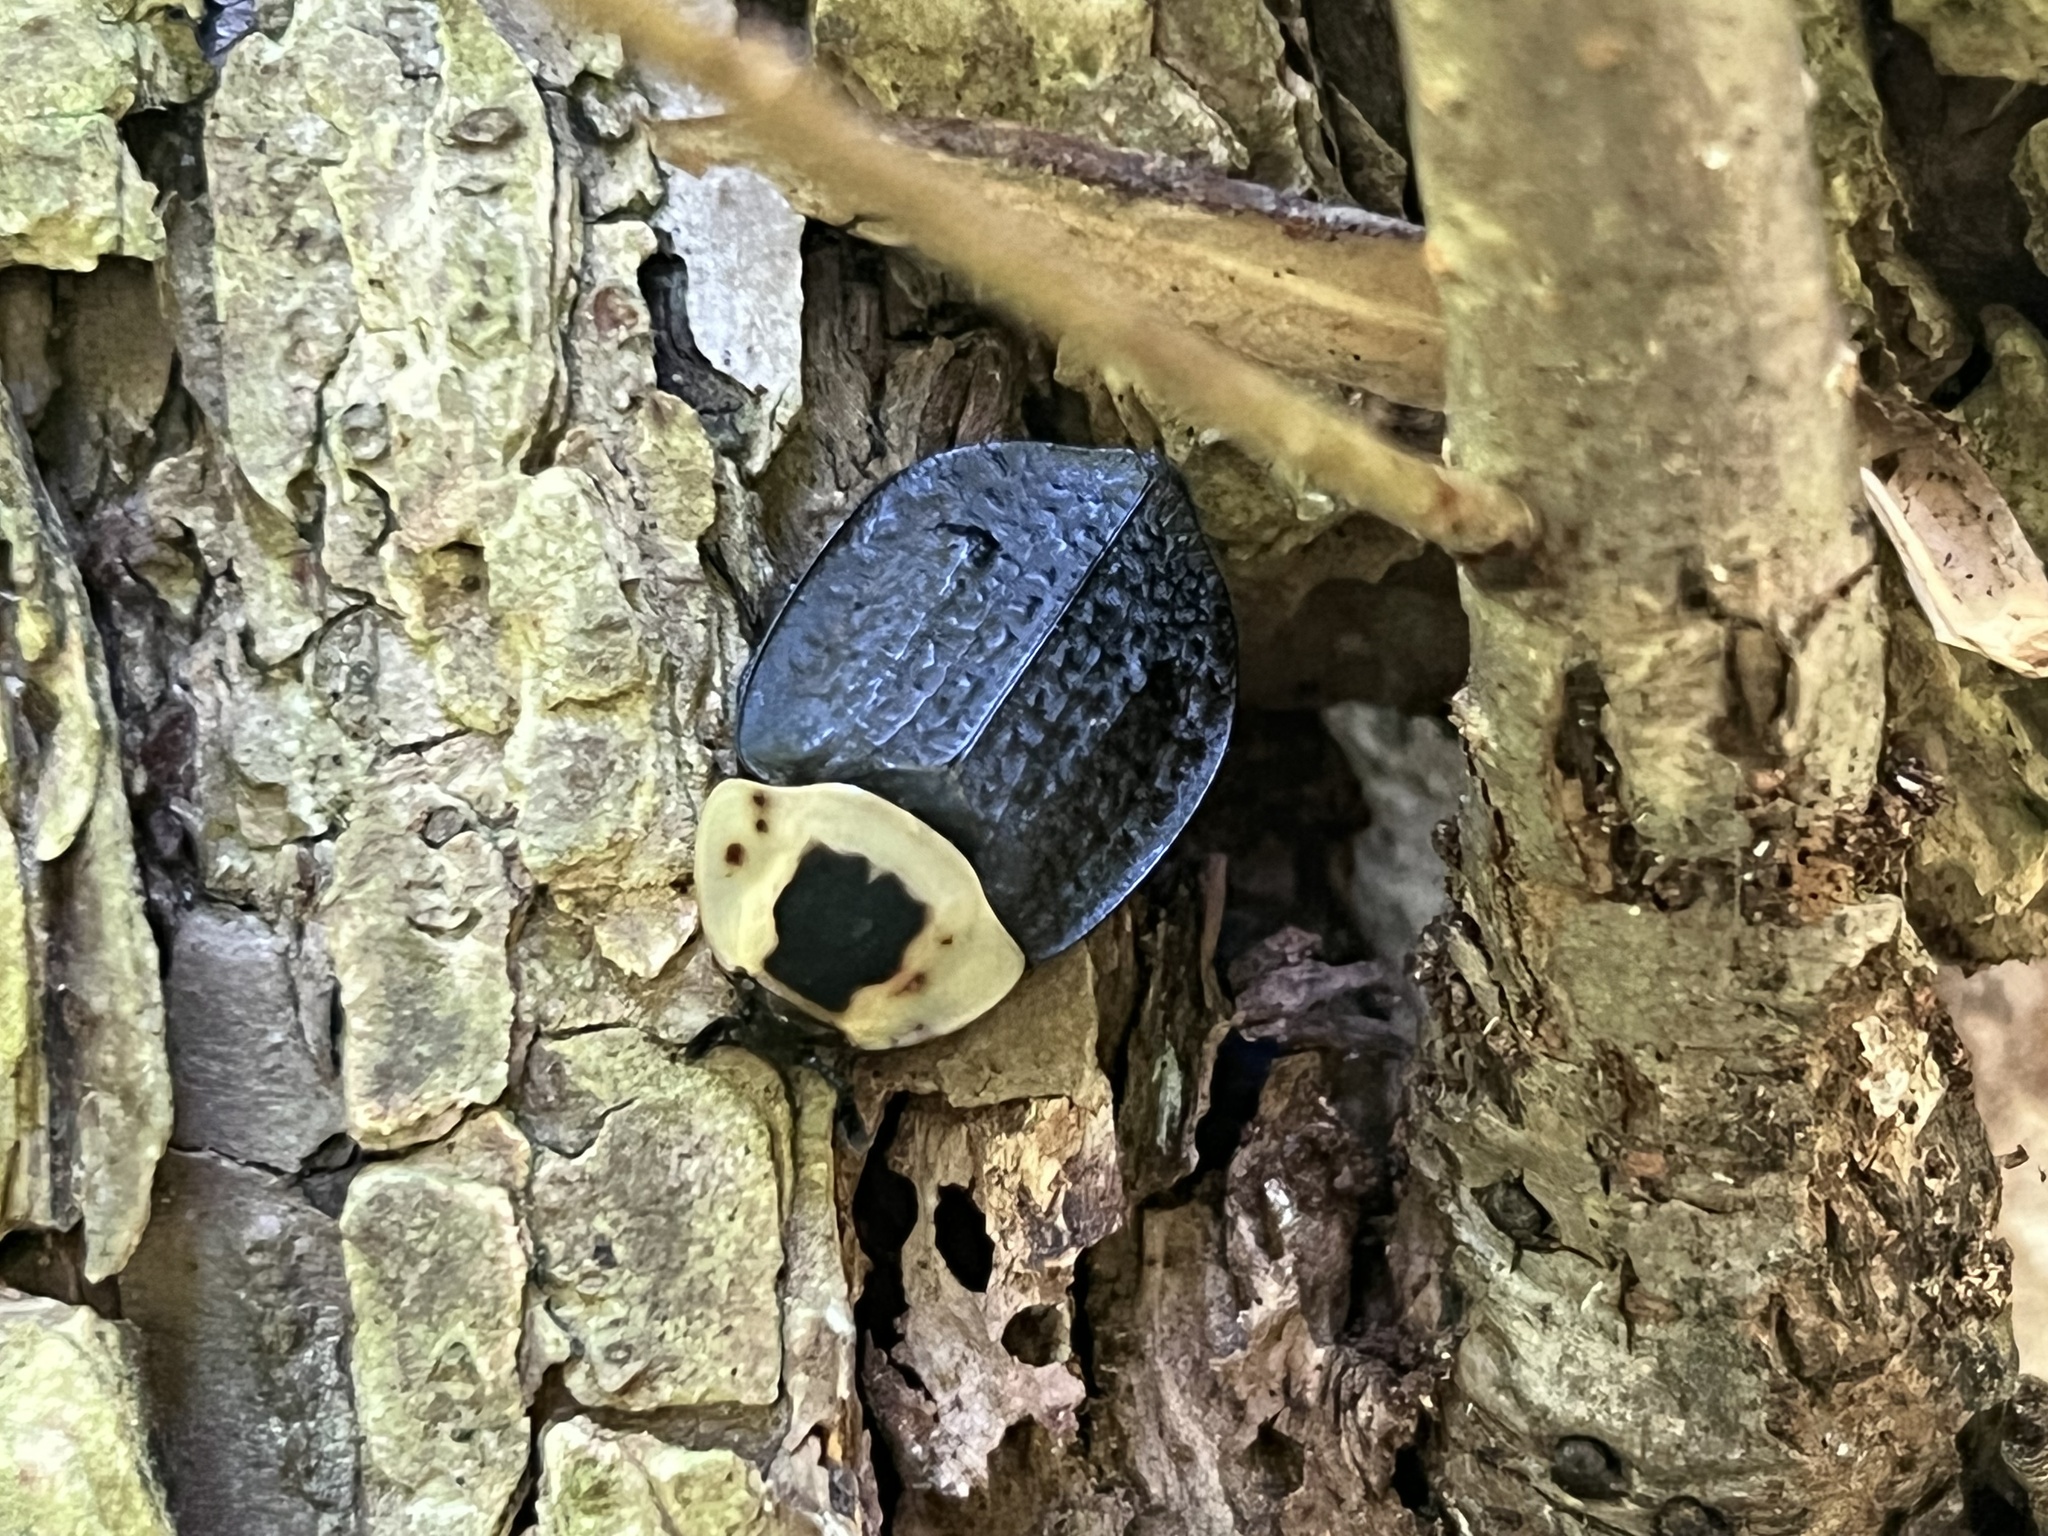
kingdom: Animalia
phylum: Arthropoda
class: Insecta
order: Coleoptera
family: Staphylinidae
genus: Necrophila
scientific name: Necrophila americana
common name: American carrion beetle
